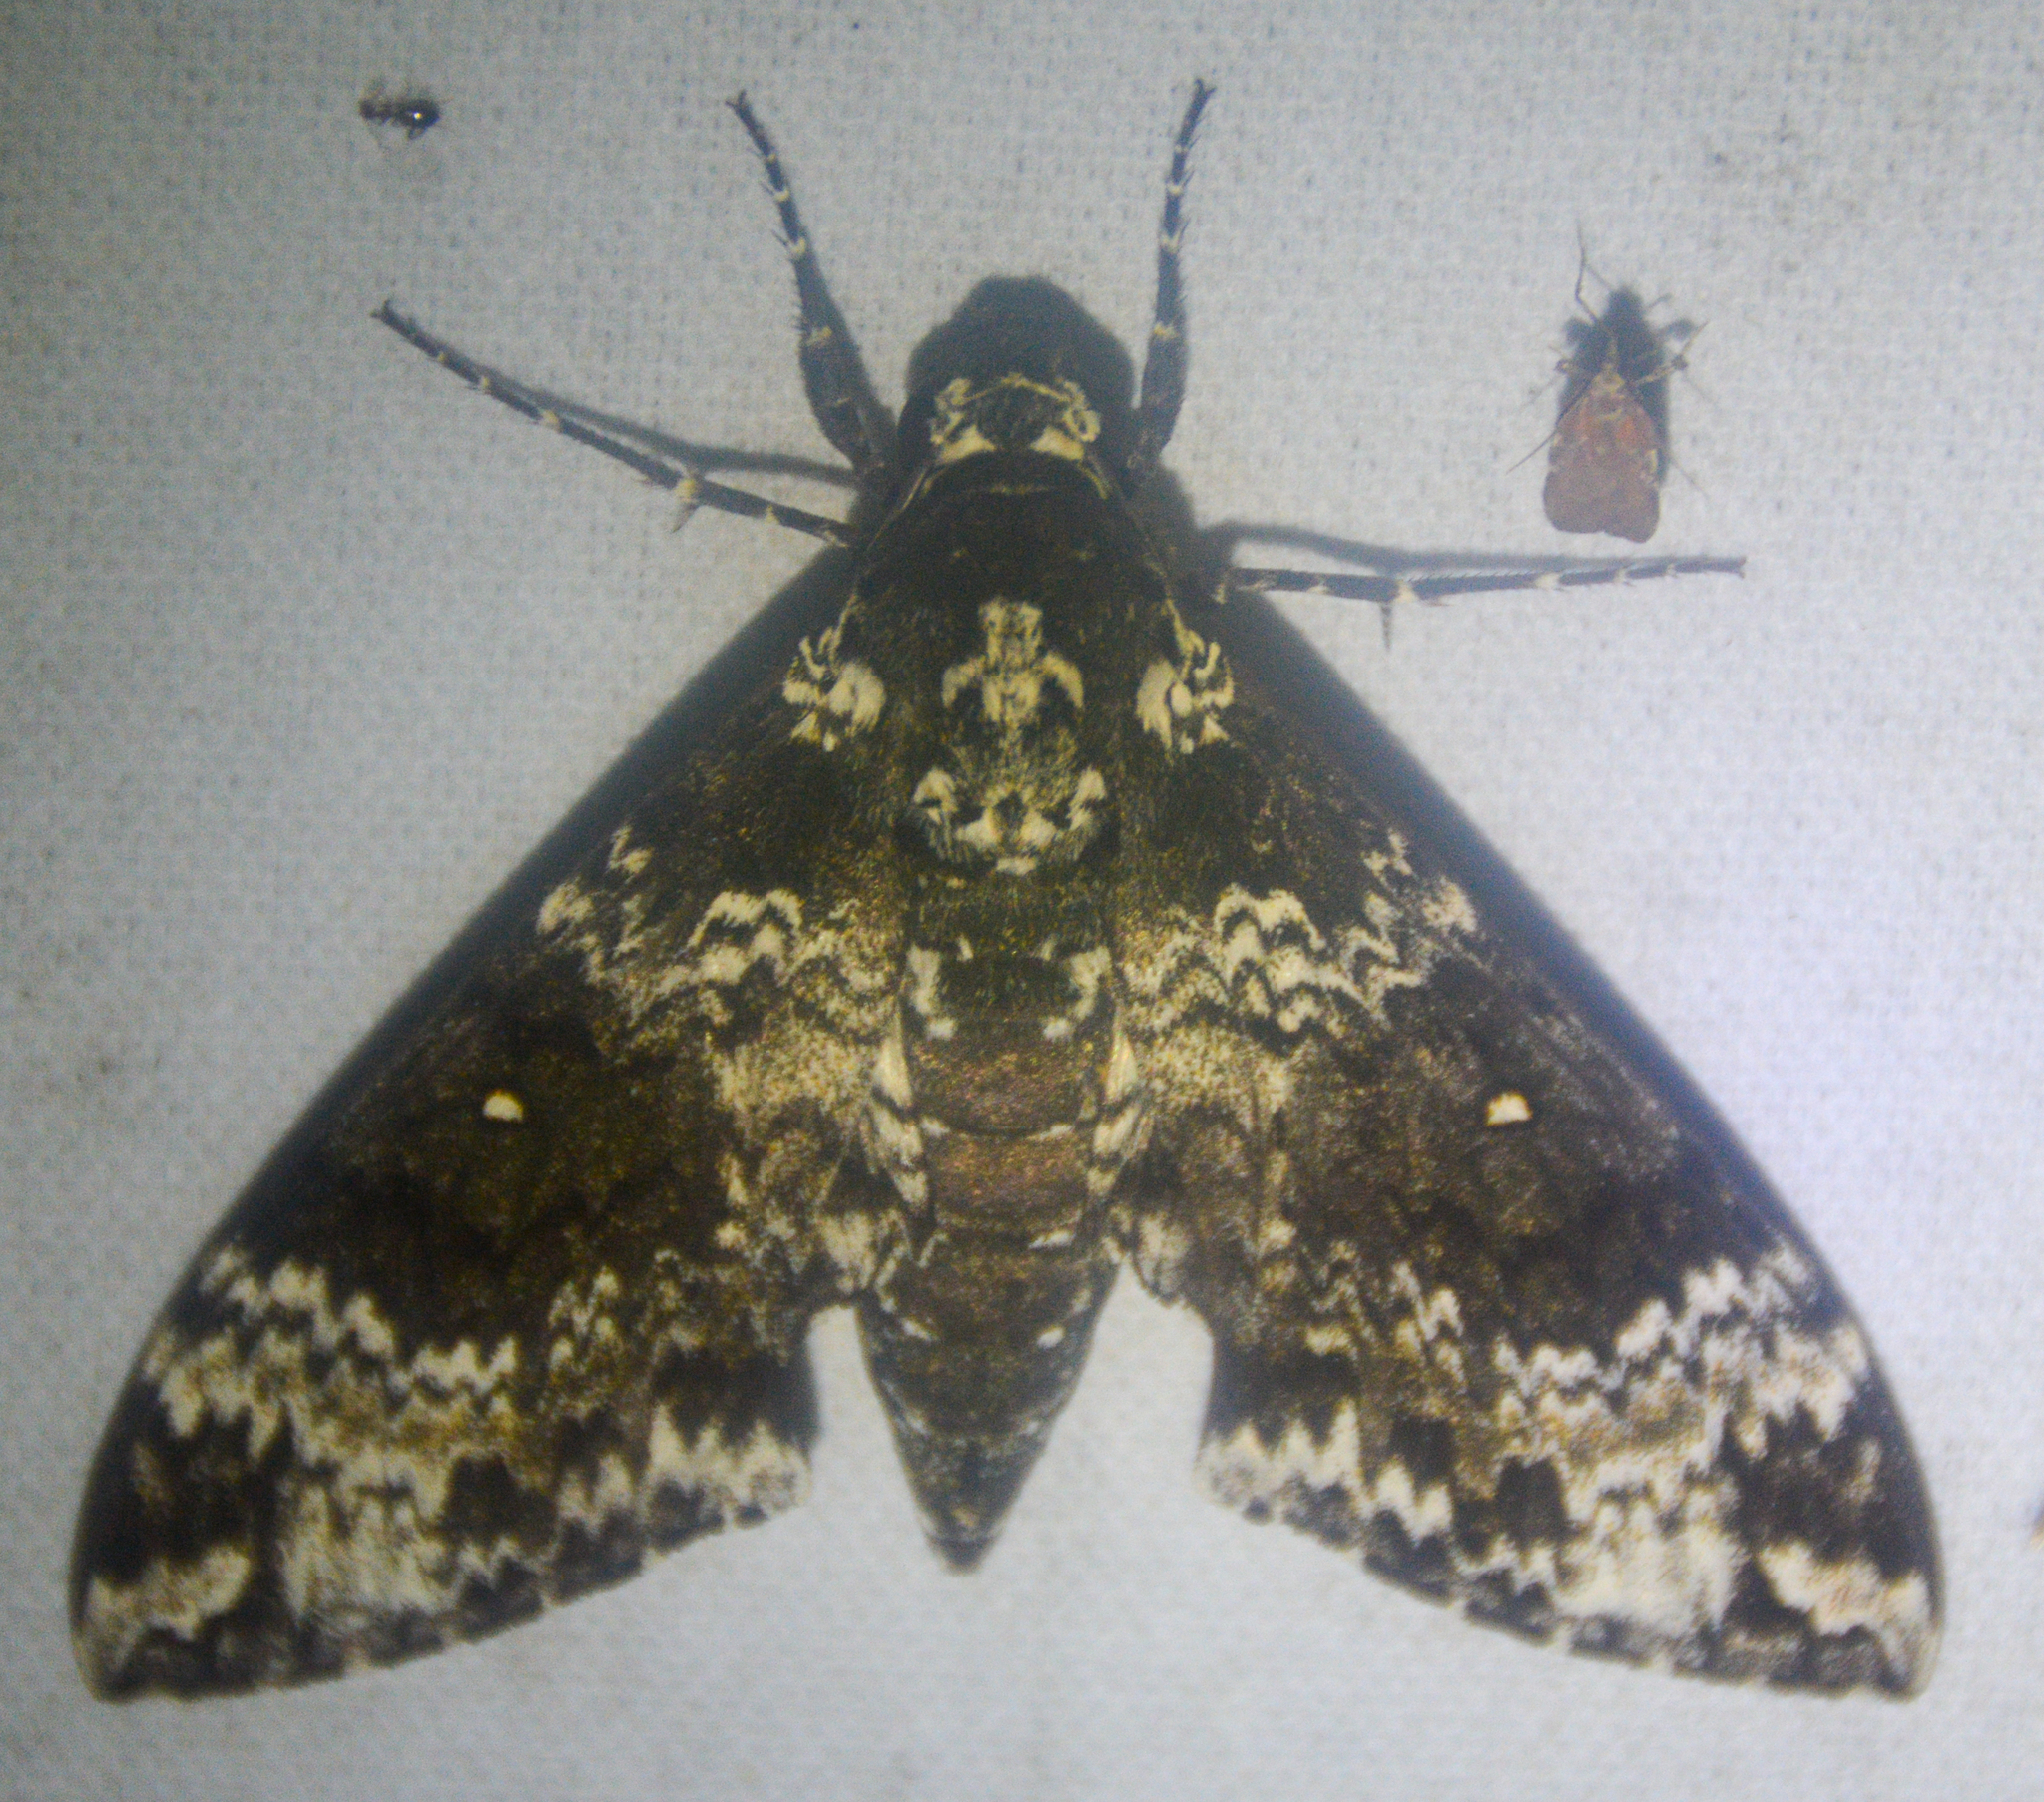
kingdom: Animalia
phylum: Arthropoda
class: Insecta
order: Lepidoptera
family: Sphingidae
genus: Manduca
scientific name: Manduca rustica
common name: Rustic sphinx
